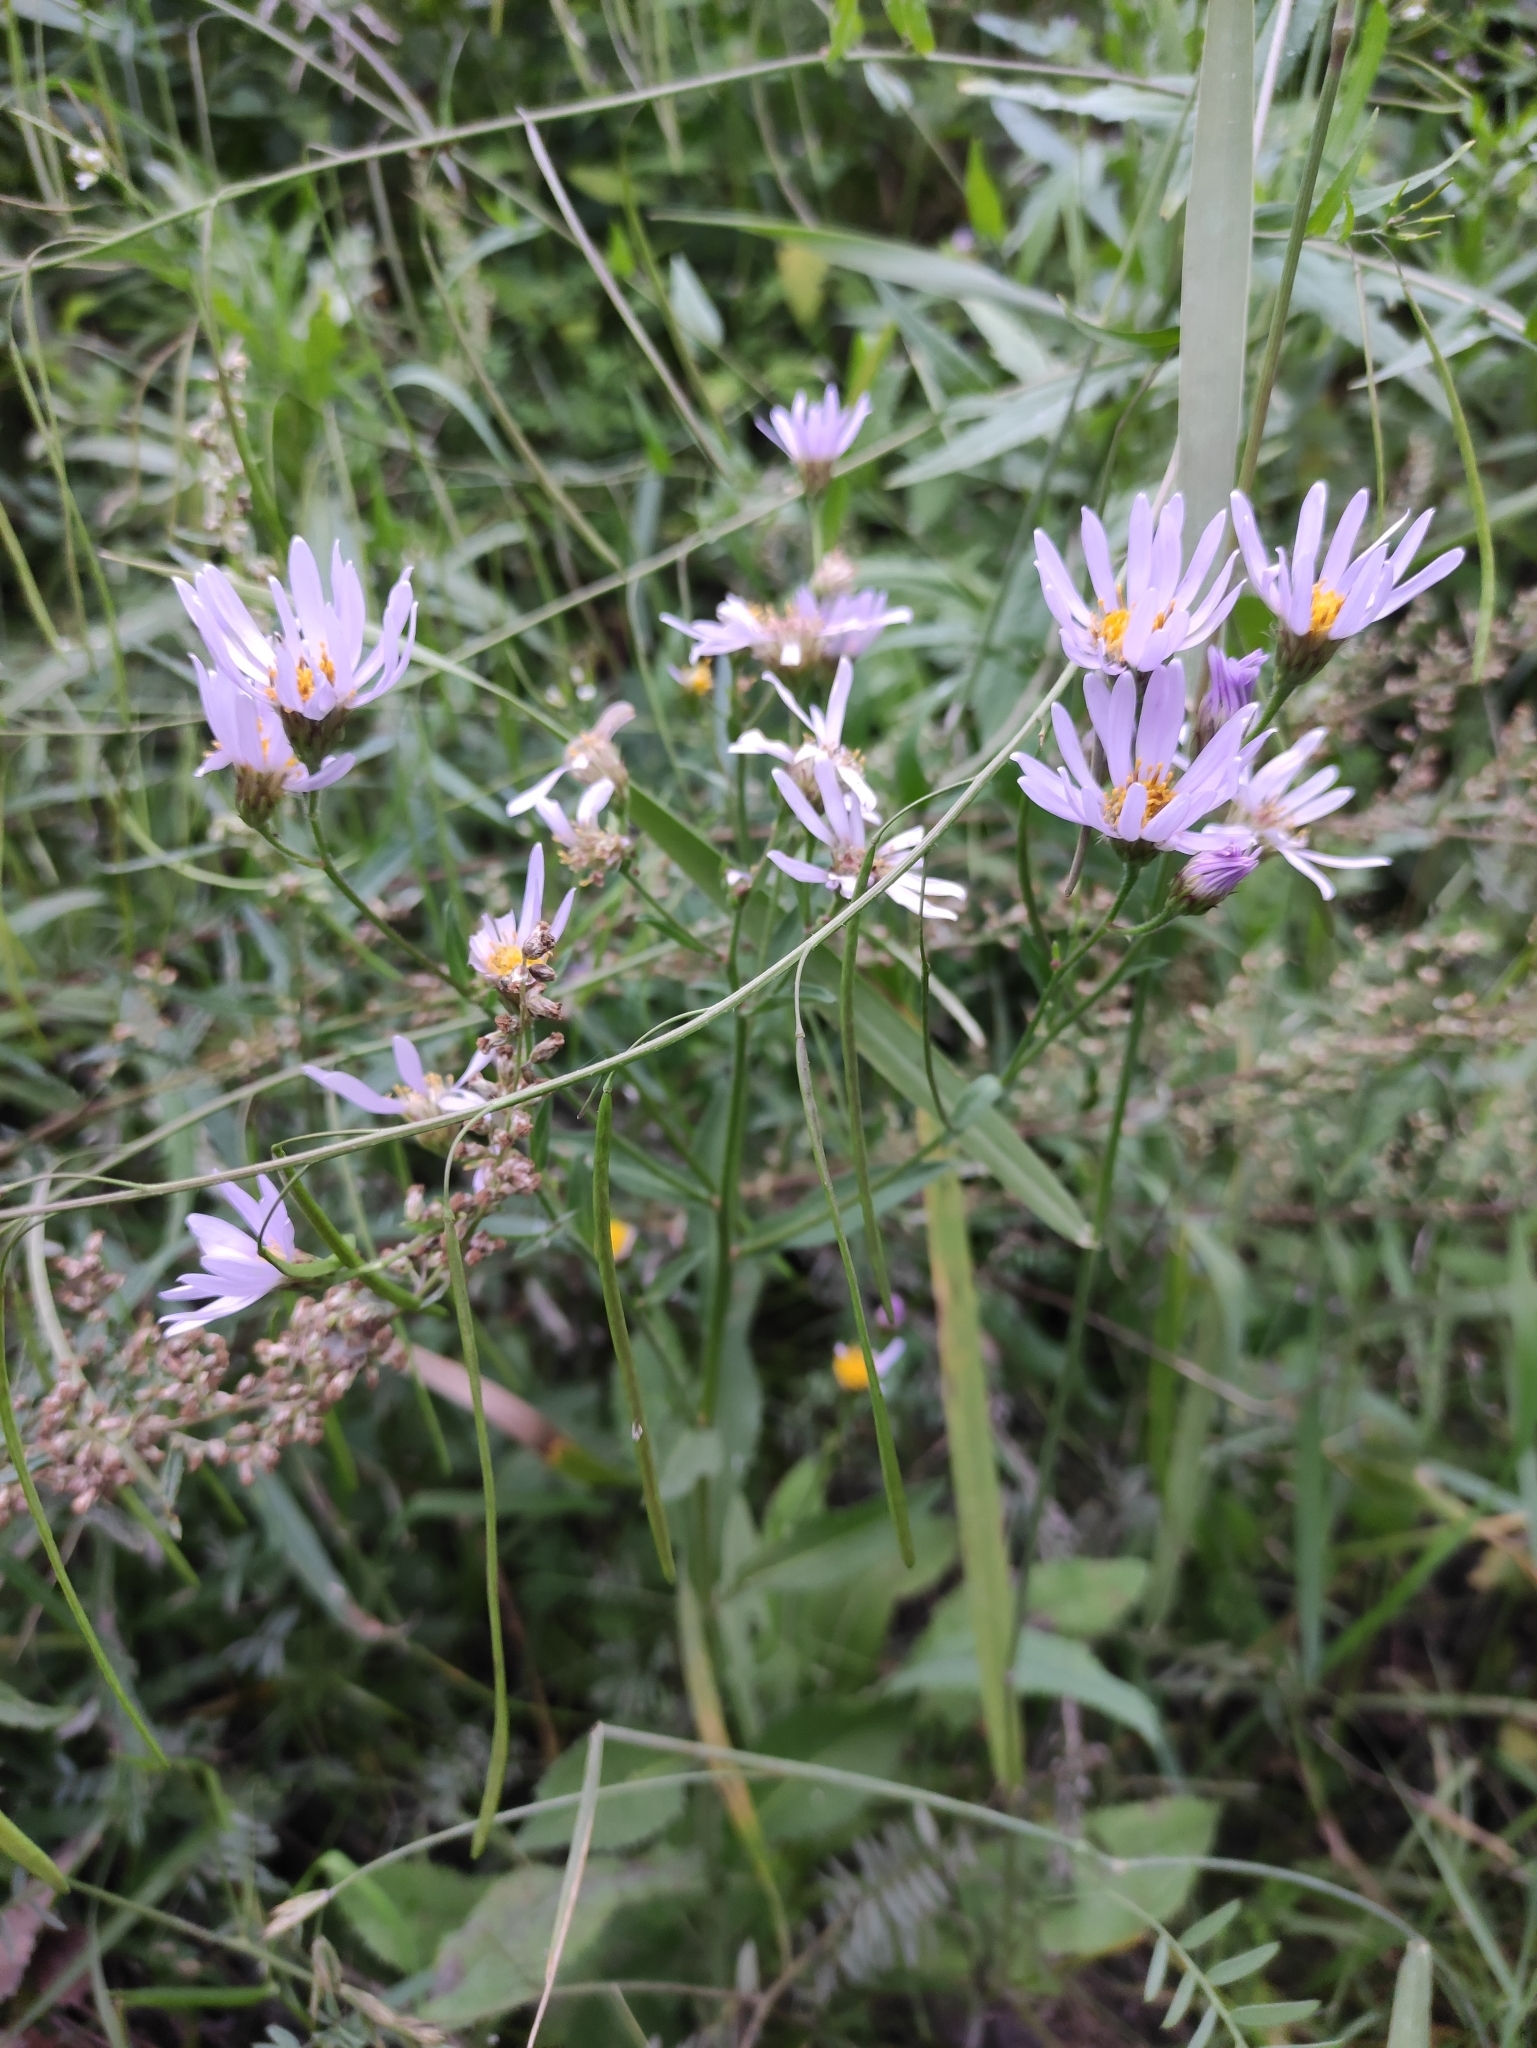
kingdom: Plantae
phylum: Tracheophyta
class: Magnoliopsida
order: Asterales
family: Asteraceae
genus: Aster
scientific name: Aster tataricus
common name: Tatarian aster
